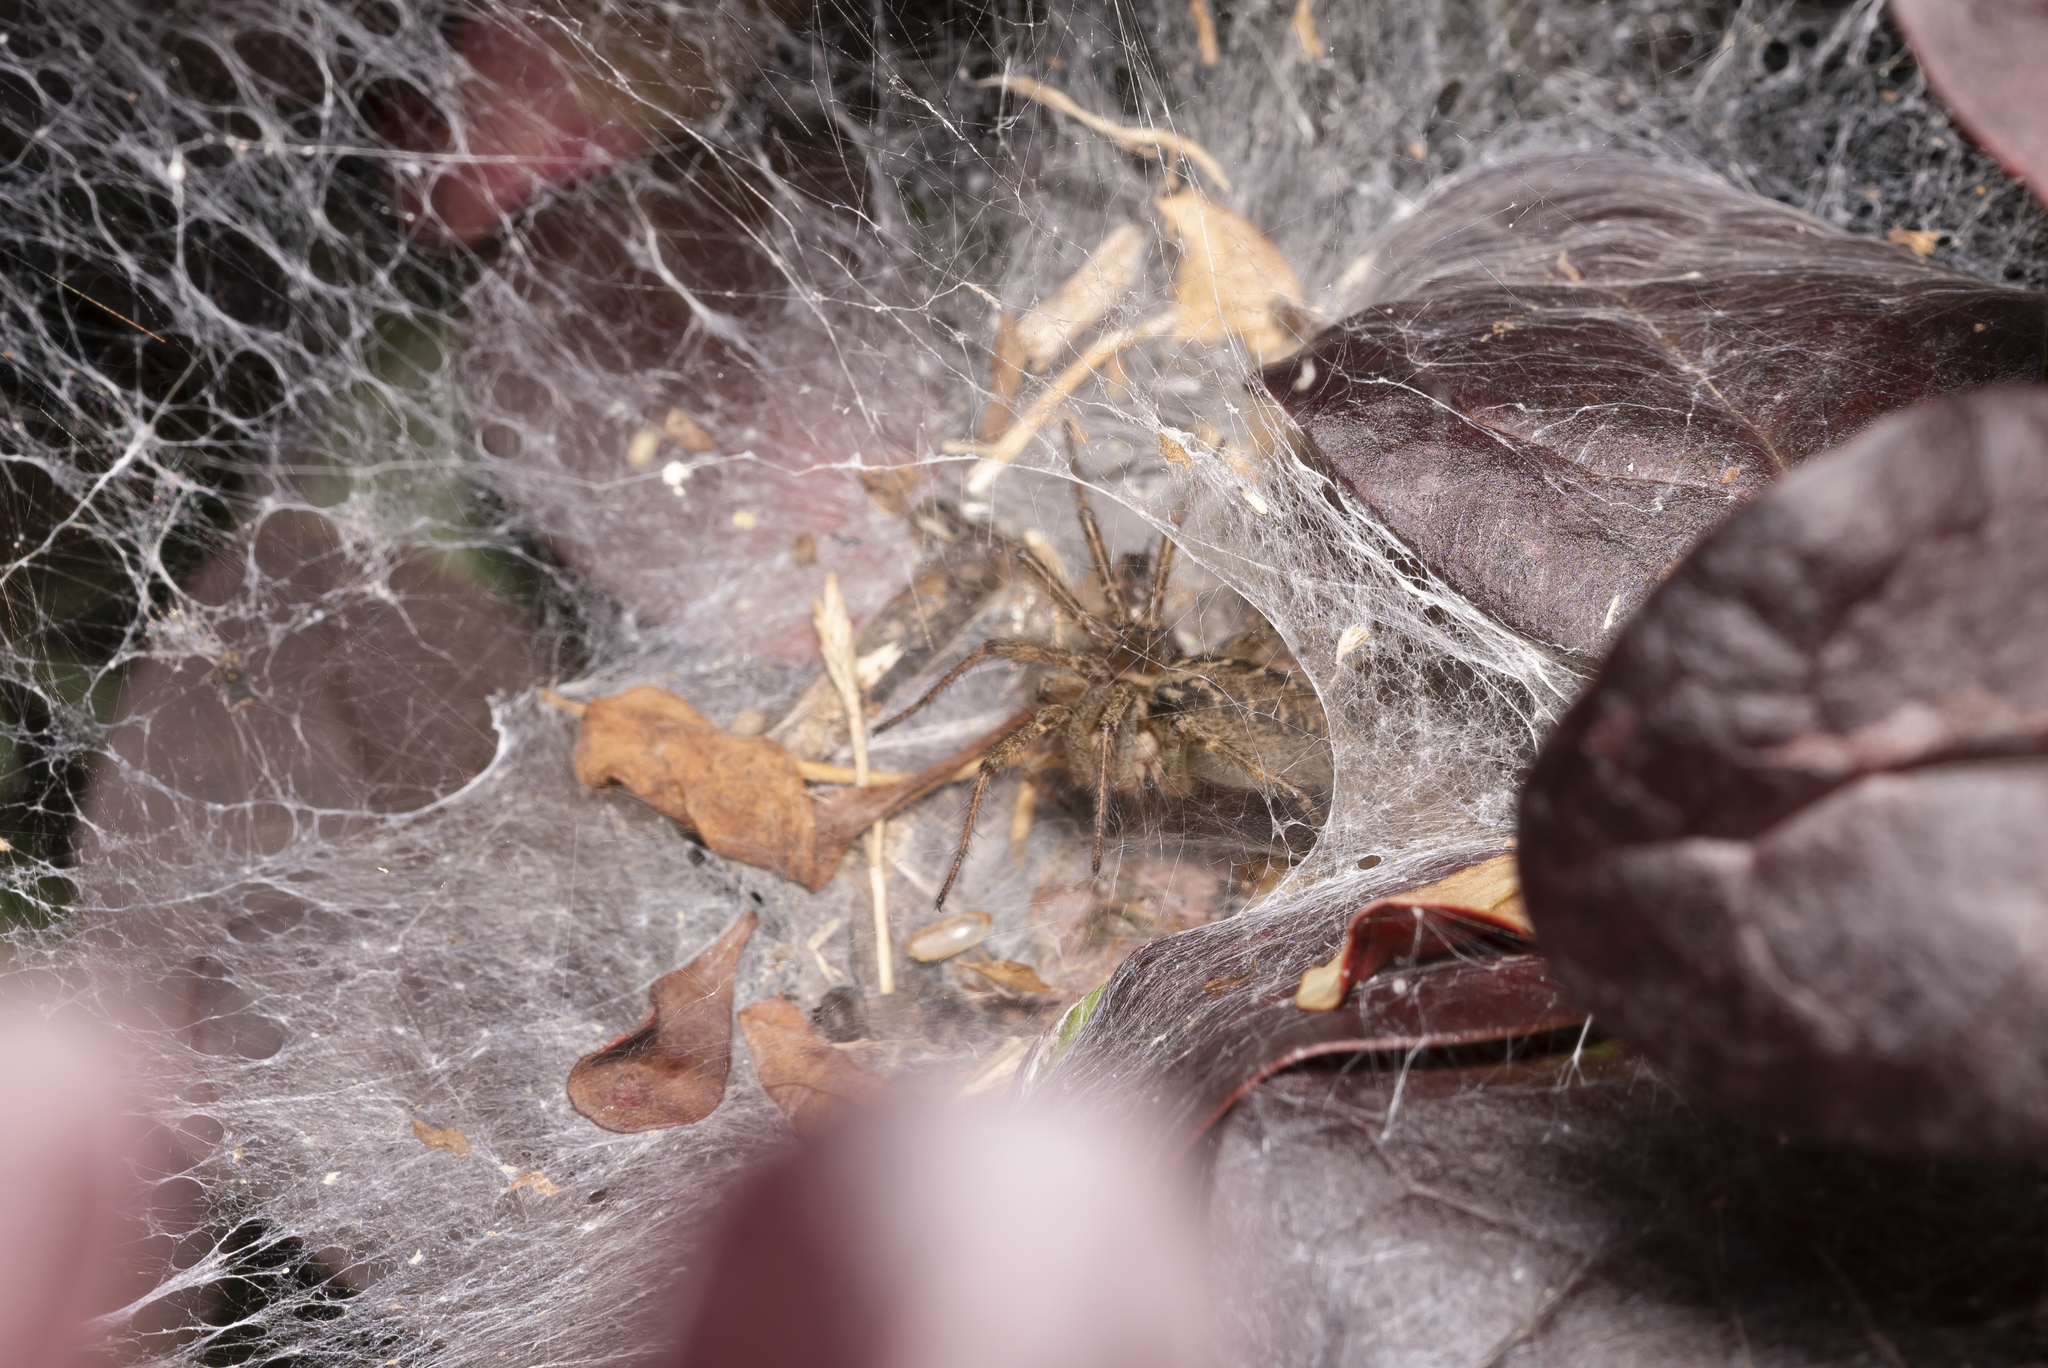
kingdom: Animalia
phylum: Arthropoda
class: Arachnida
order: Araneae
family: Agelenidae
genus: Agelena
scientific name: Agelena labyrinthica
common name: Labyrinth spider
